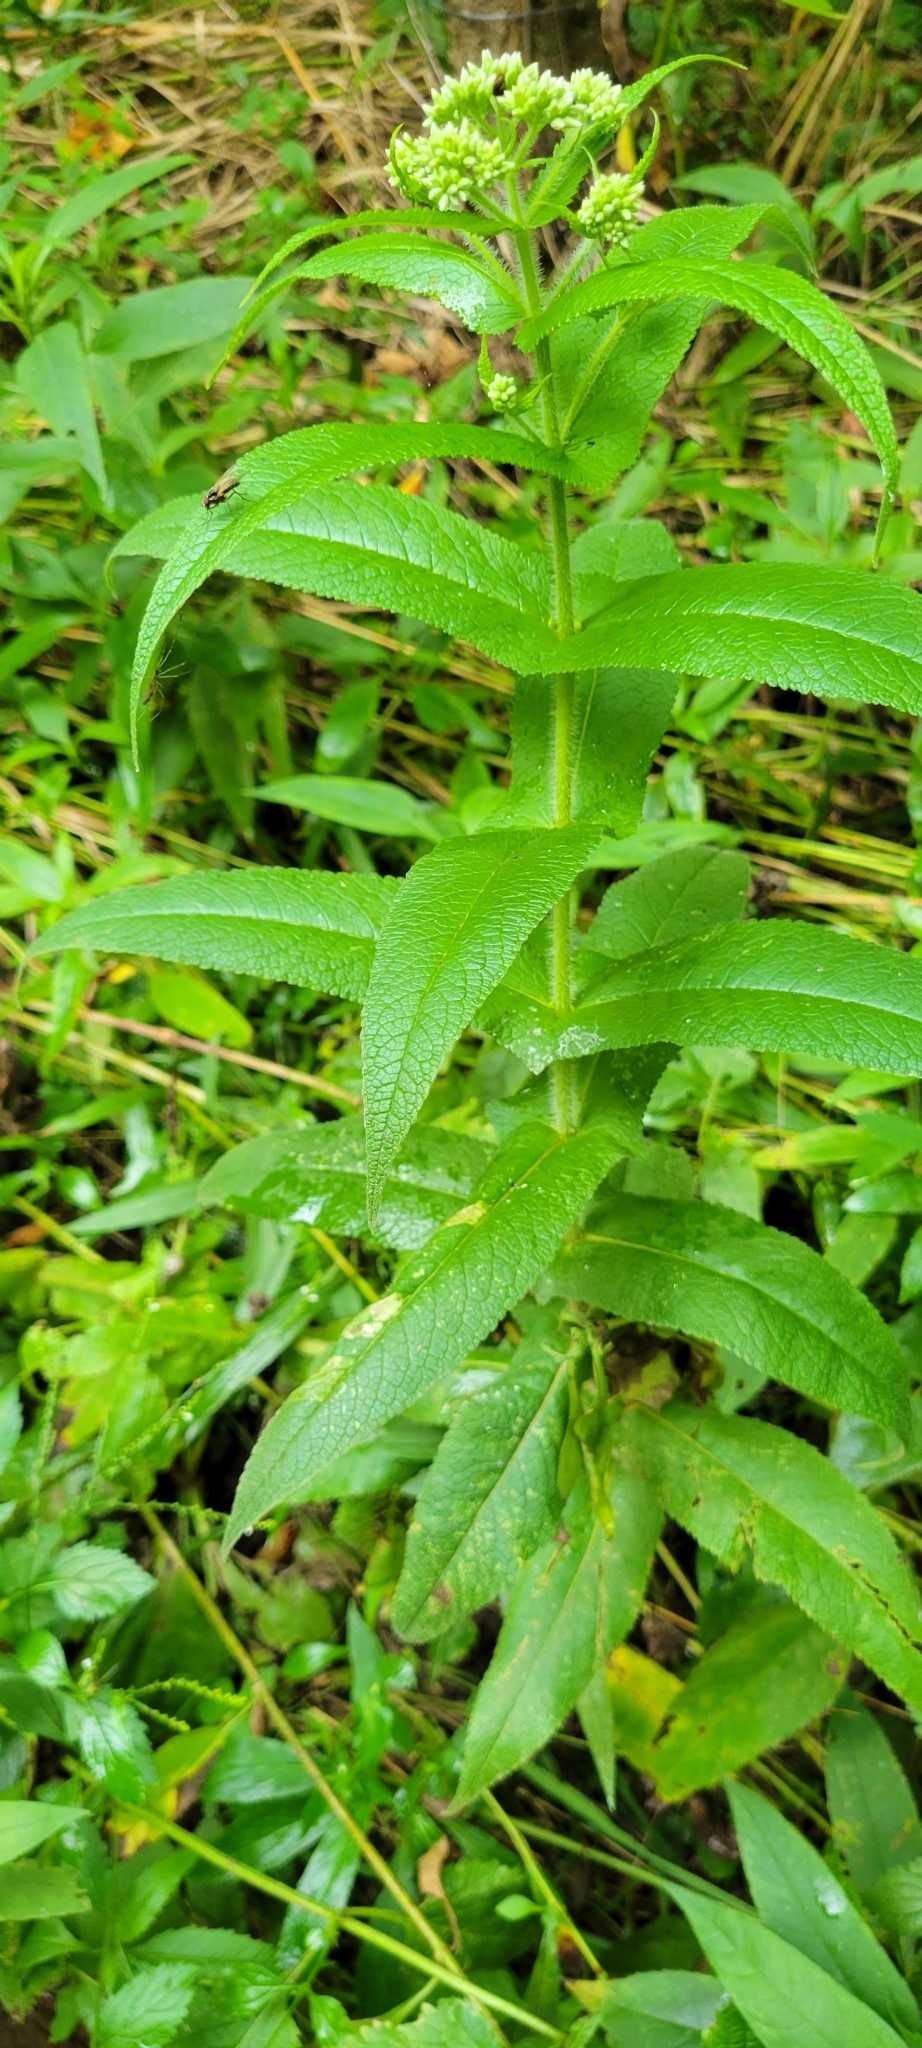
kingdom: Plantae
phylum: Tracheophyta
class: Magnoliopsida
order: Asterales
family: Asteraceae
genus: Eupatorium
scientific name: Eupatorium perfoliatum
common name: Boneset
